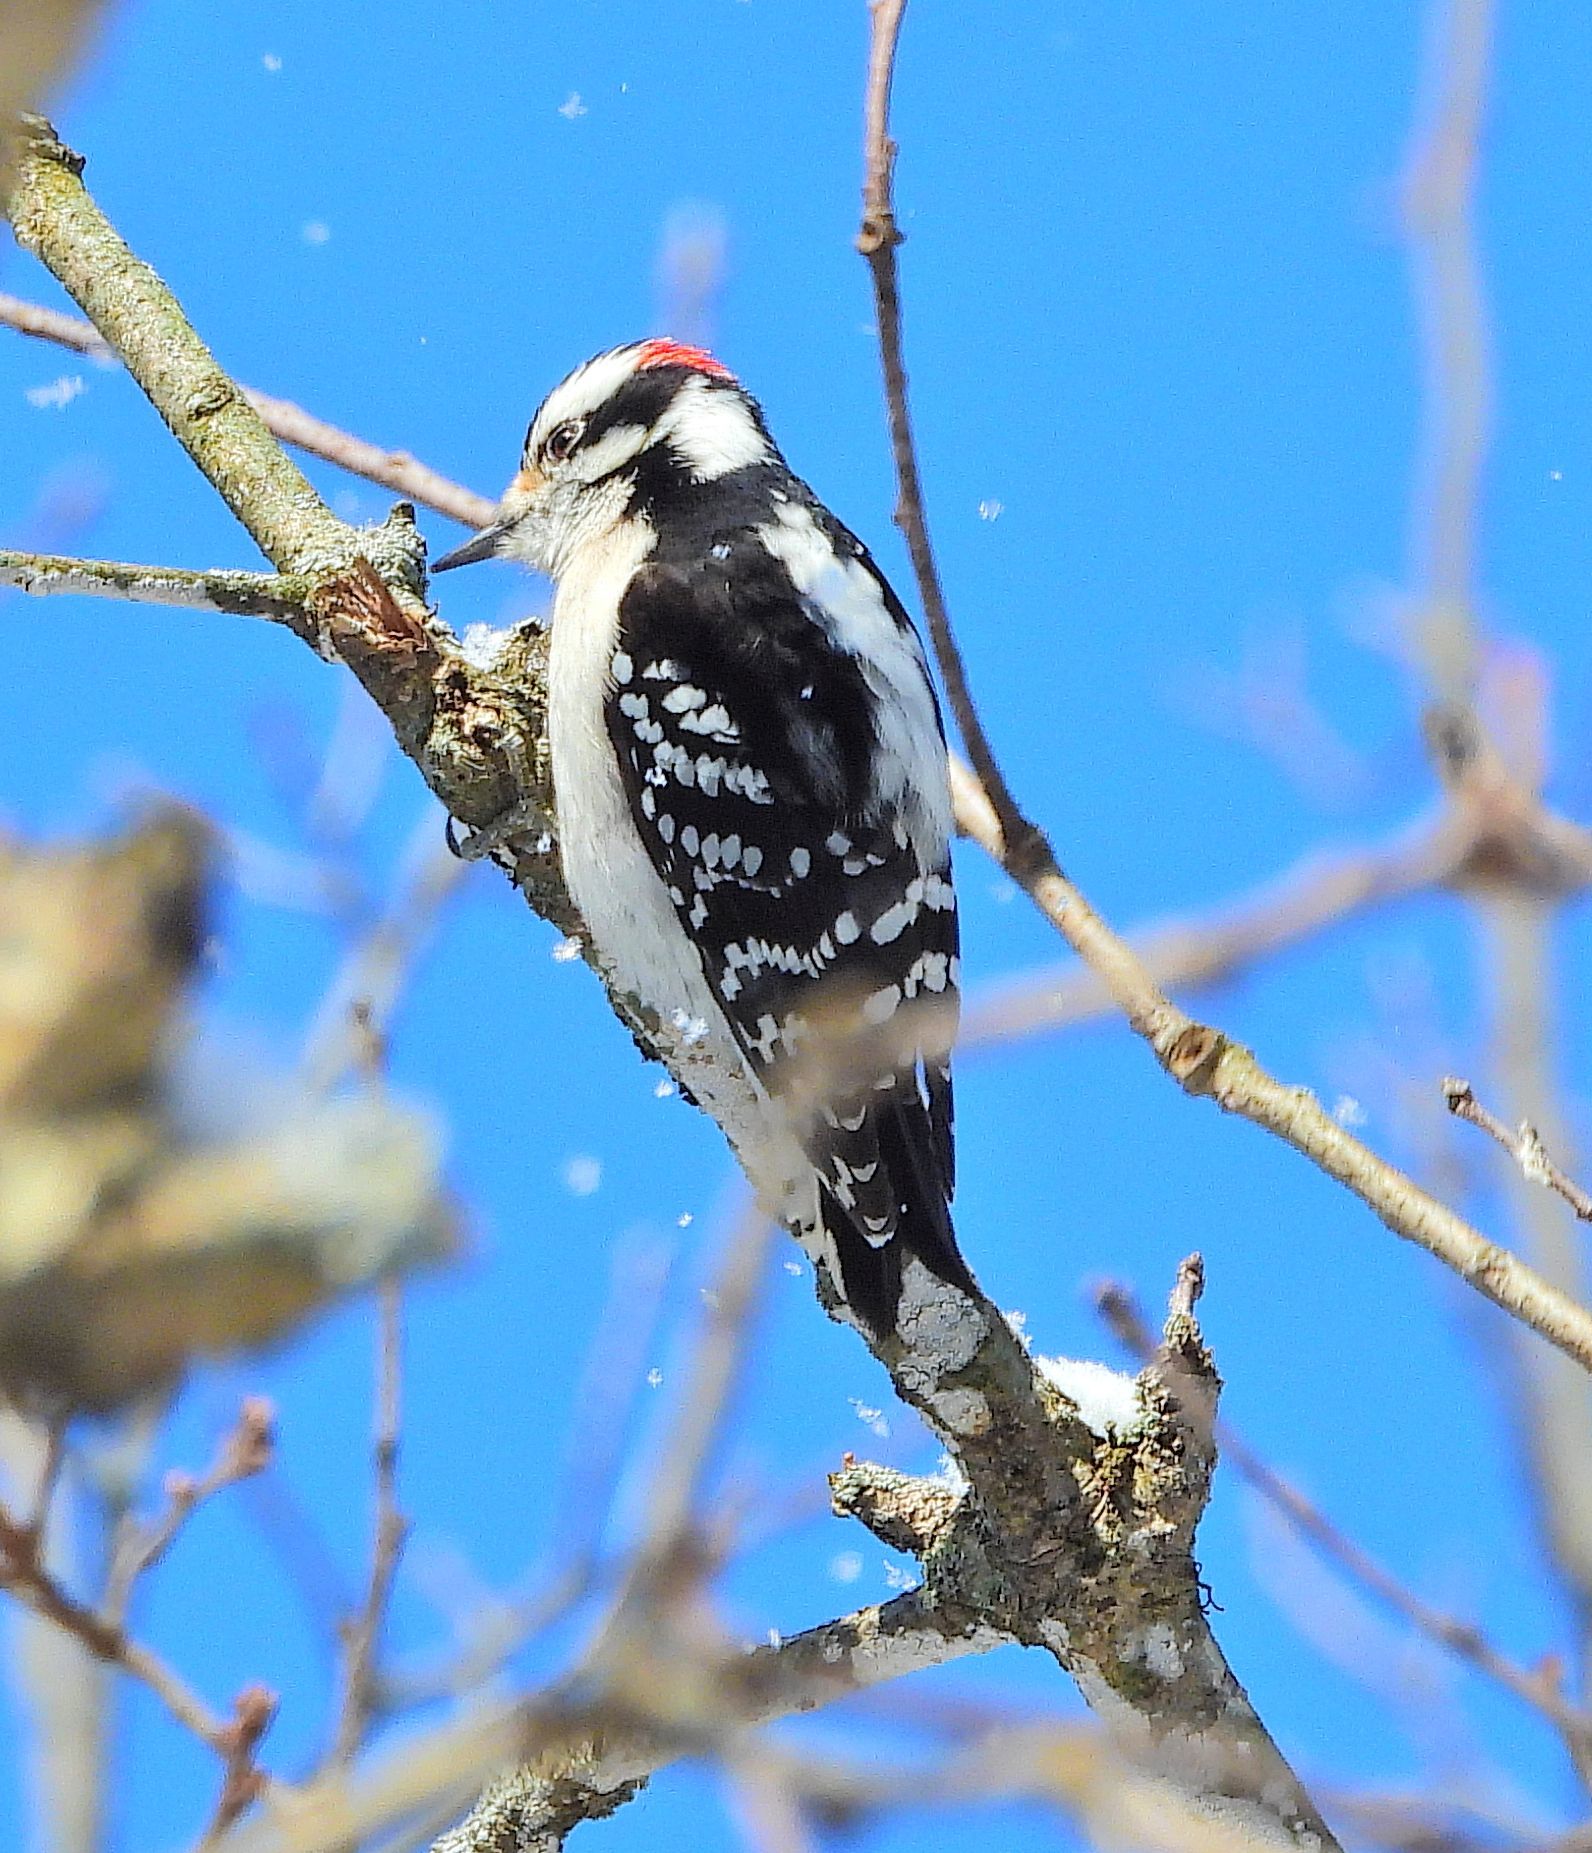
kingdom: Animalia
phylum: Chordata
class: Aves
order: Piciformes
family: Picidae
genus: Dryobates
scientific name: Dryobates pubescens
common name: Downy woodpecker
